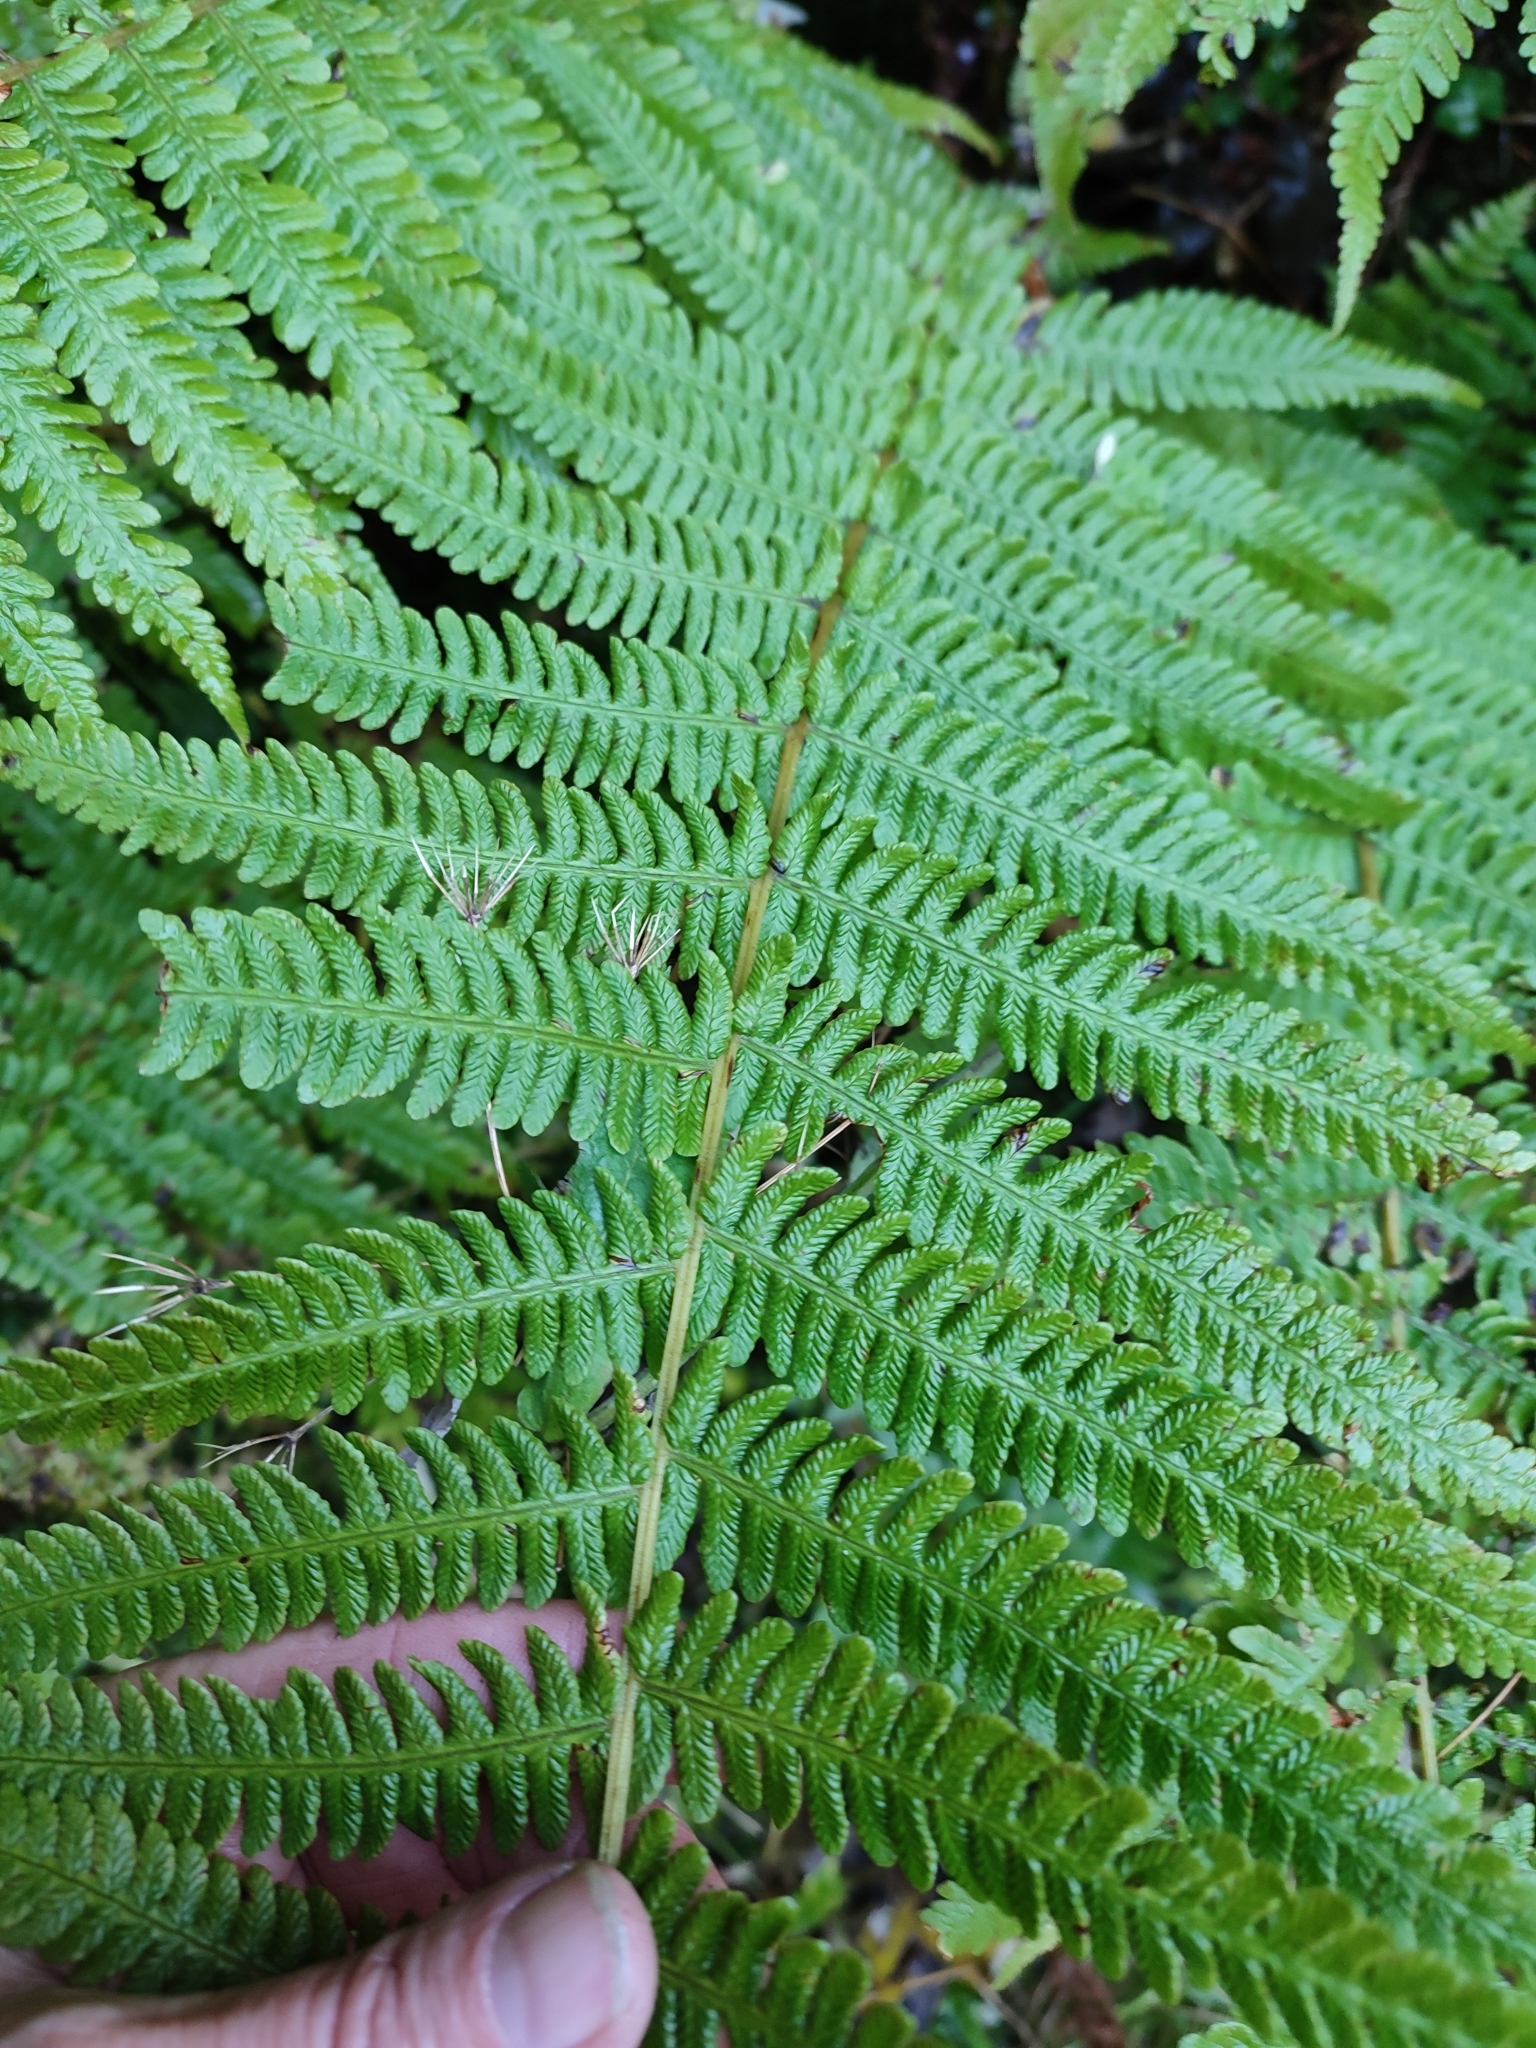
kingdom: Plantae
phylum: Tracheophyta
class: Polypodiopsida
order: Polypodiales
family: Thelypteridaceae
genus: Oreopteris
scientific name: Oreopteris limbosperma
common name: Lemon-scented fern
